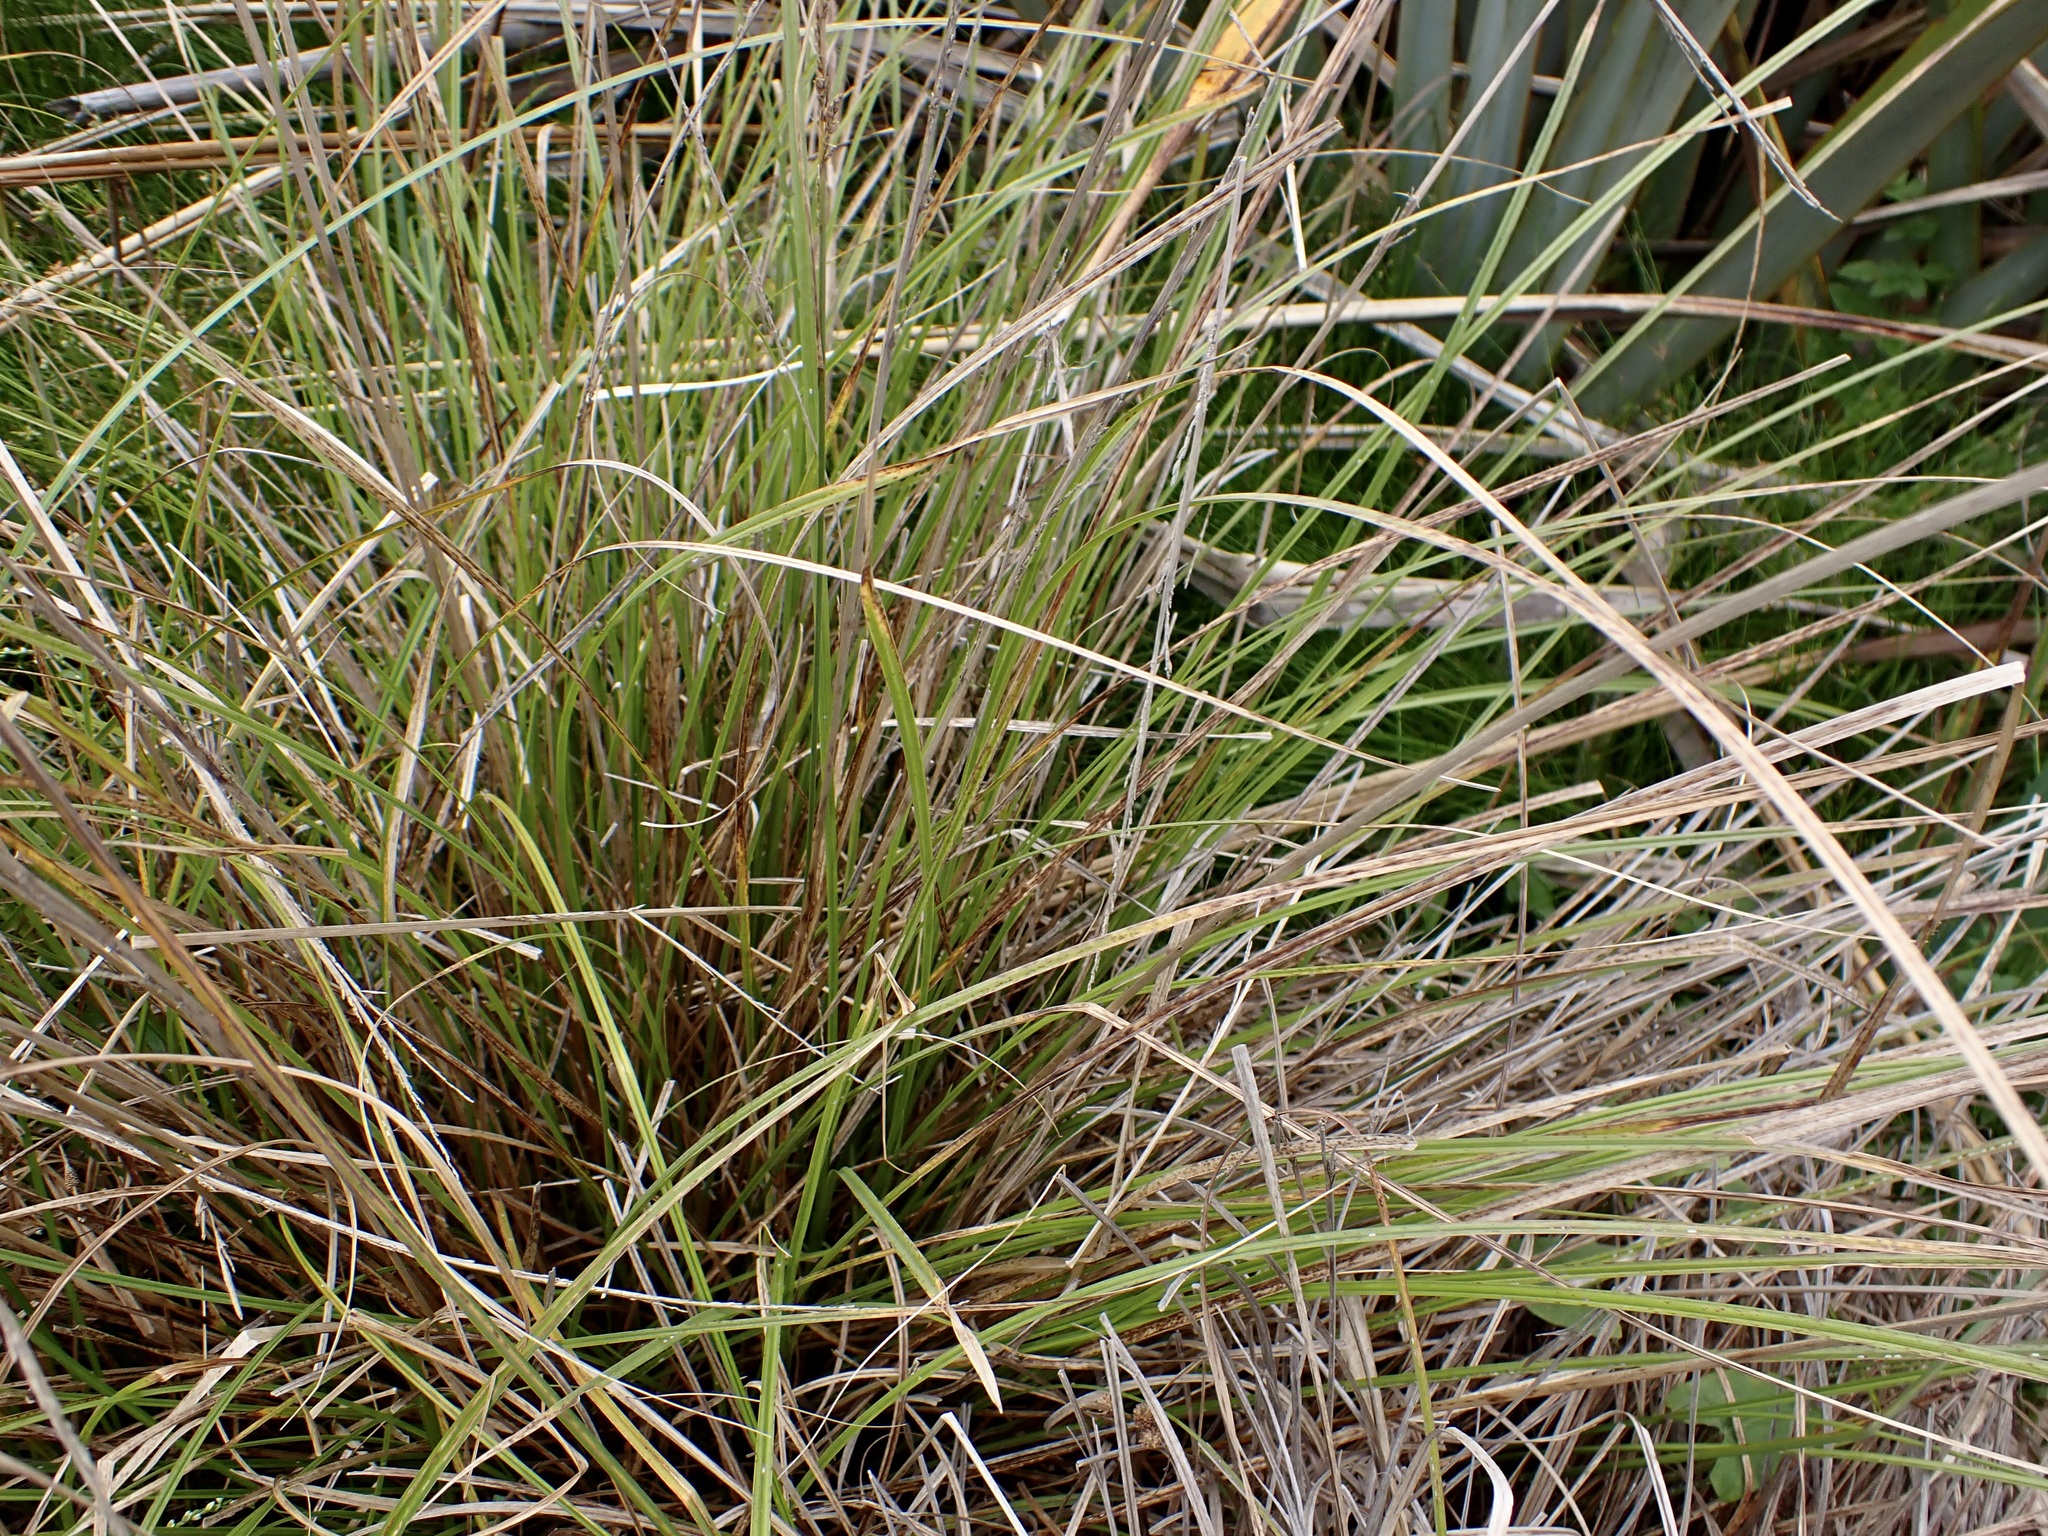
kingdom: Plantae
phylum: Tracheophyta
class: Liliopsida
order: Poales
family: Cyperaceae
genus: Carex
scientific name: Carex virgata
